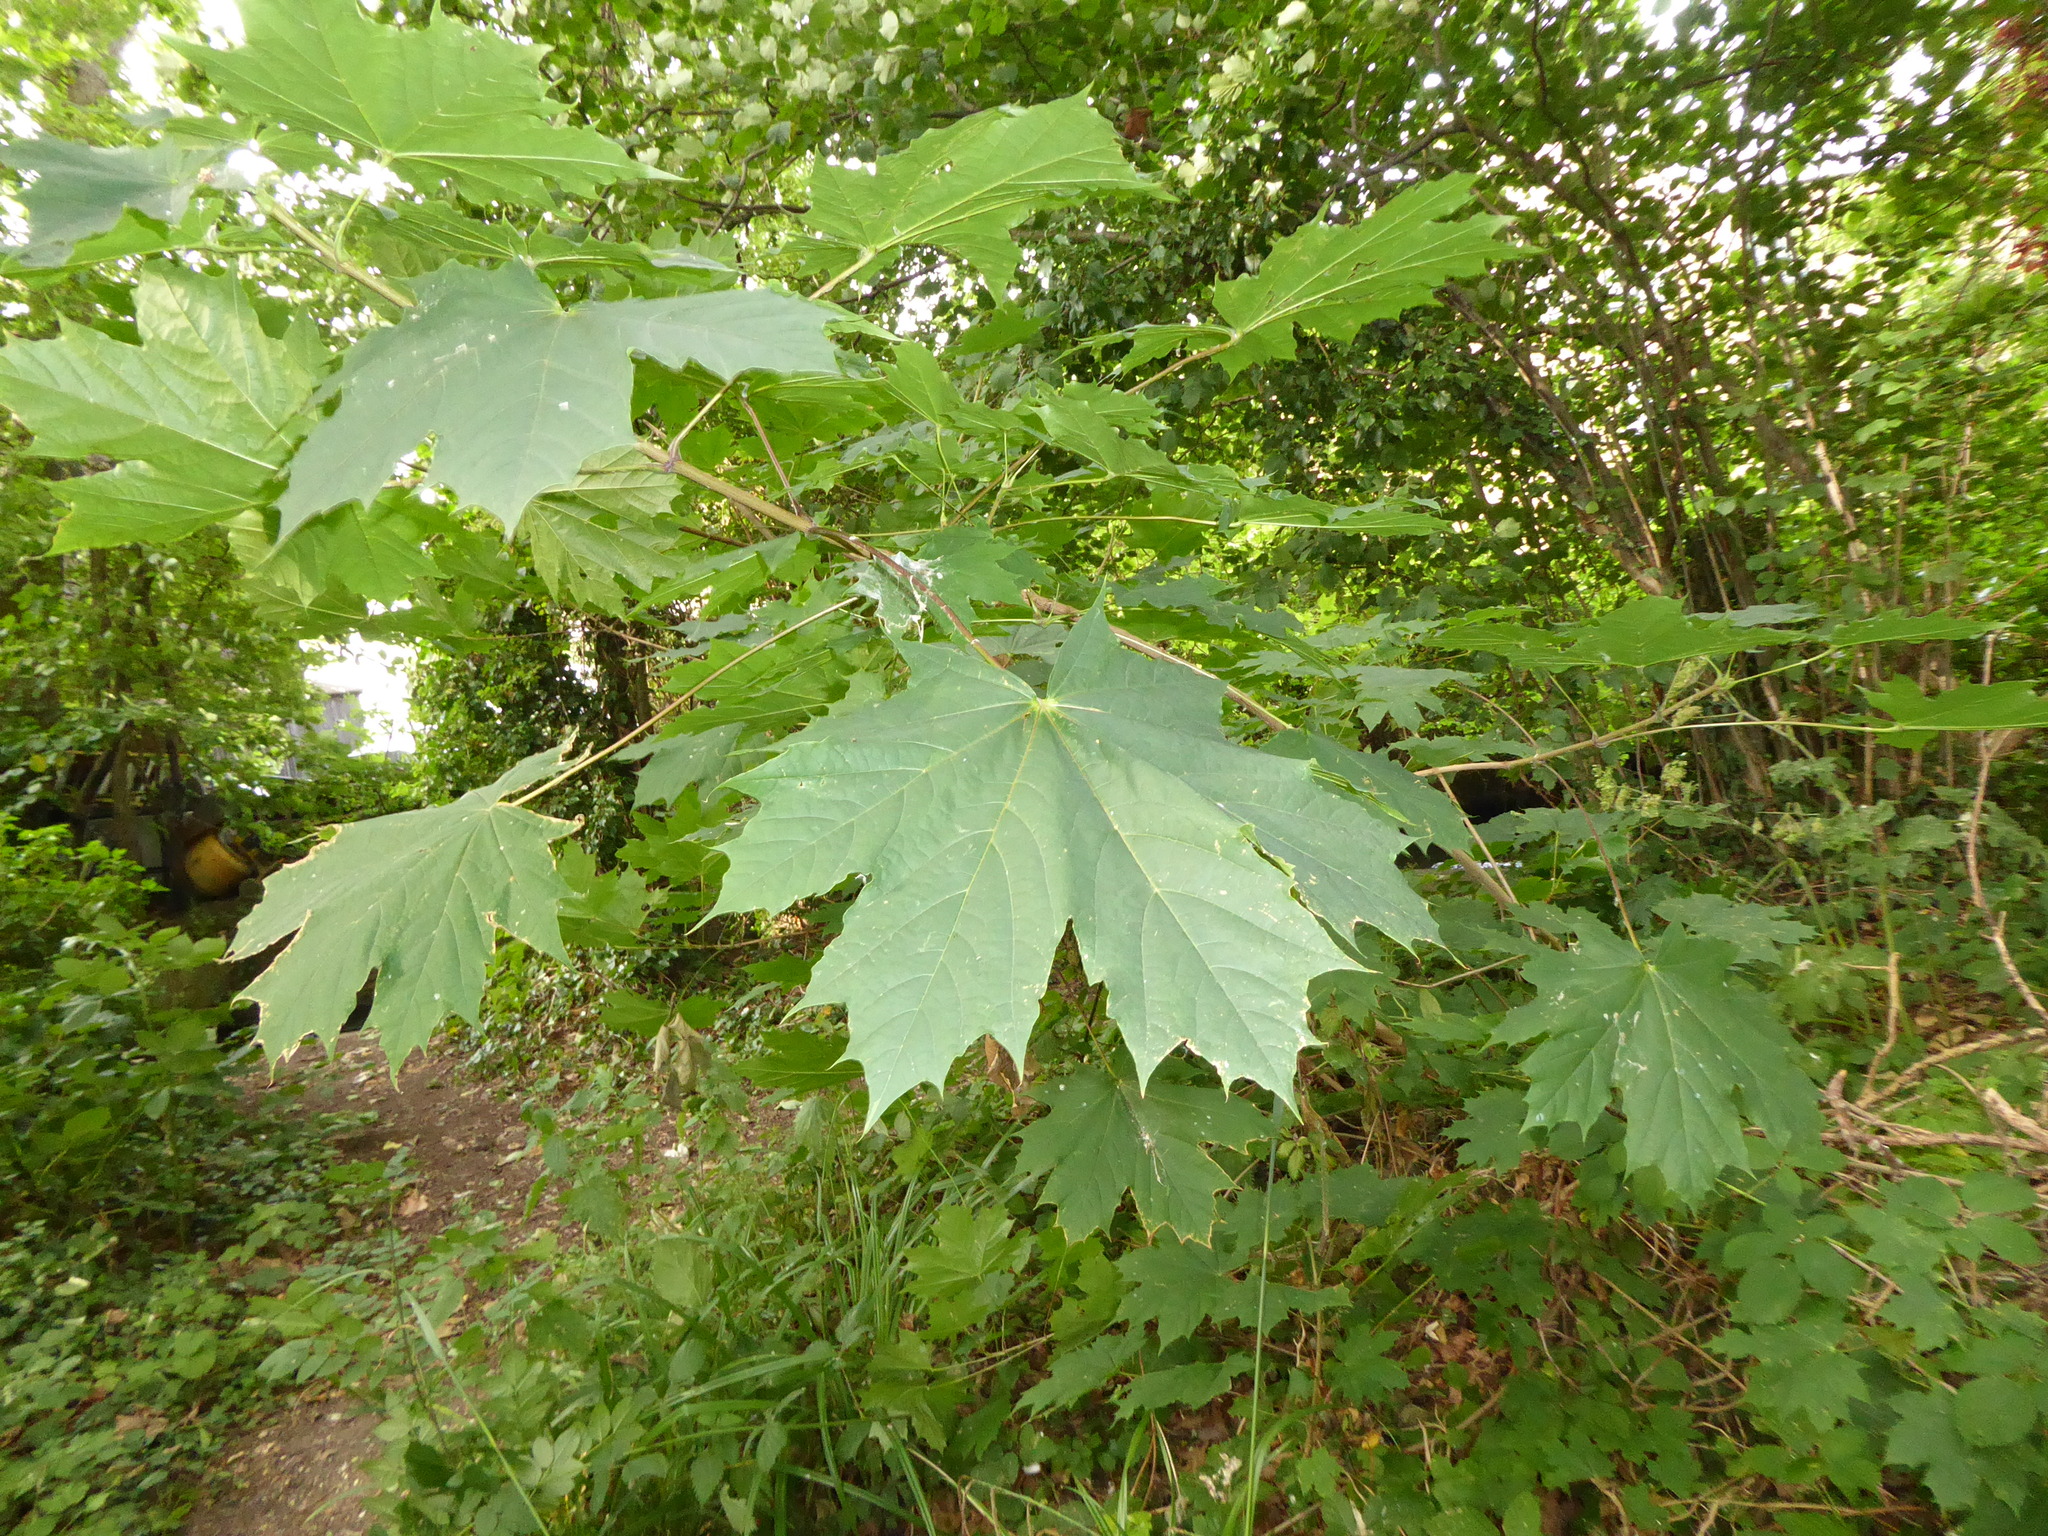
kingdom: Plantae
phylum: Tracheophyta
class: Magnoliopsida
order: Sapindales
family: Sapindaceae
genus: Acer
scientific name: Acer platanoides
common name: Norway maple
